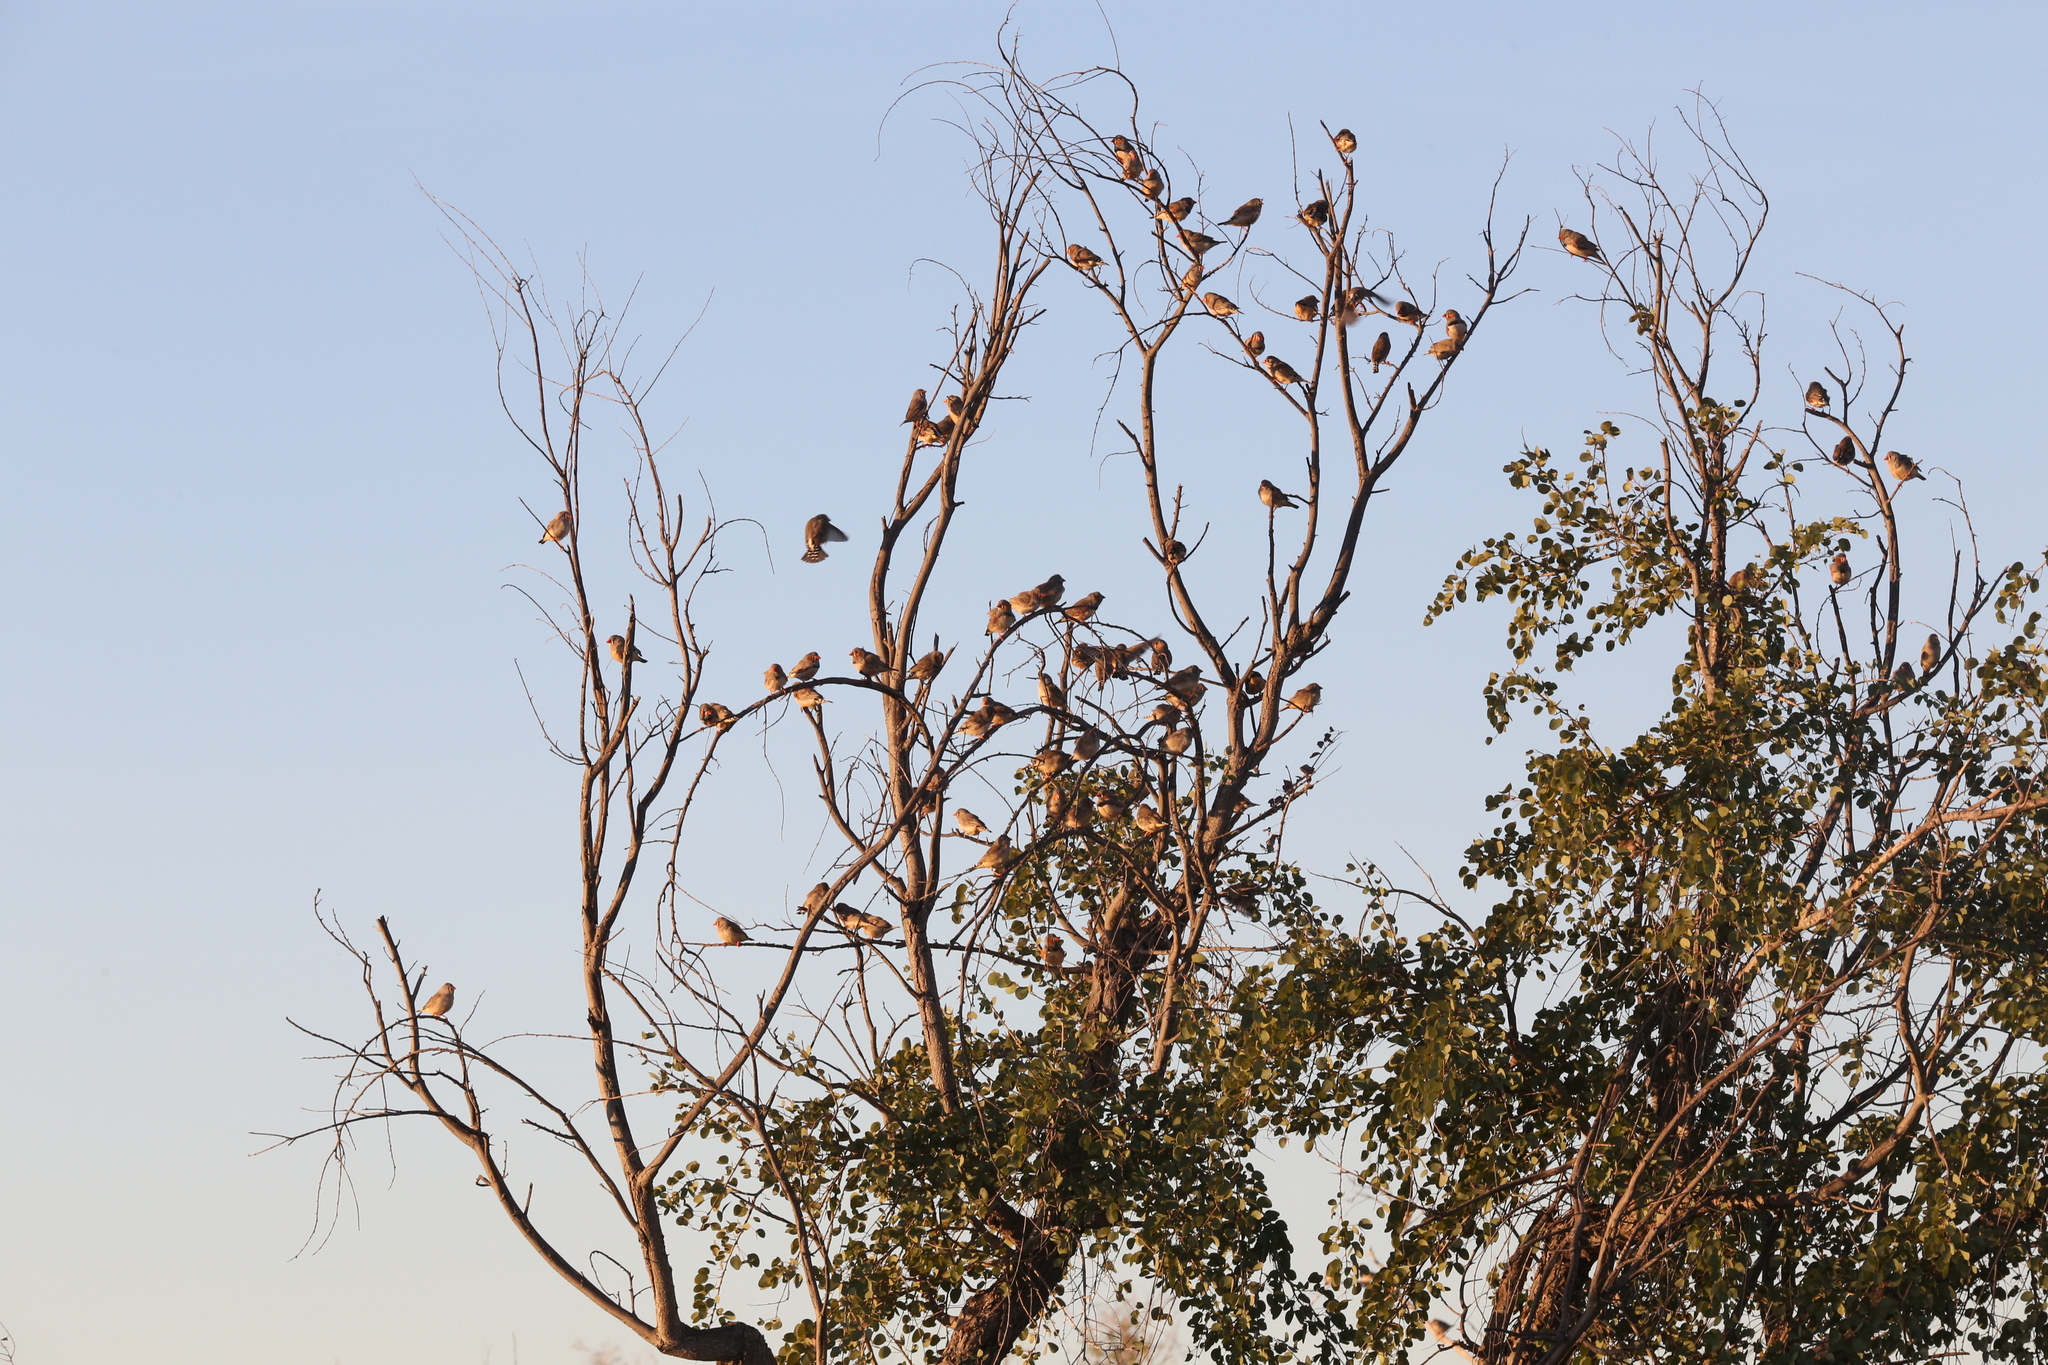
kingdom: Animalia
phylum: Chordata
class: Aves
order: Passeriformes
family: Estrildidae
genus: Taeniopygia
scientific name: Taeniopygia guttata
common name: Zebra finch
